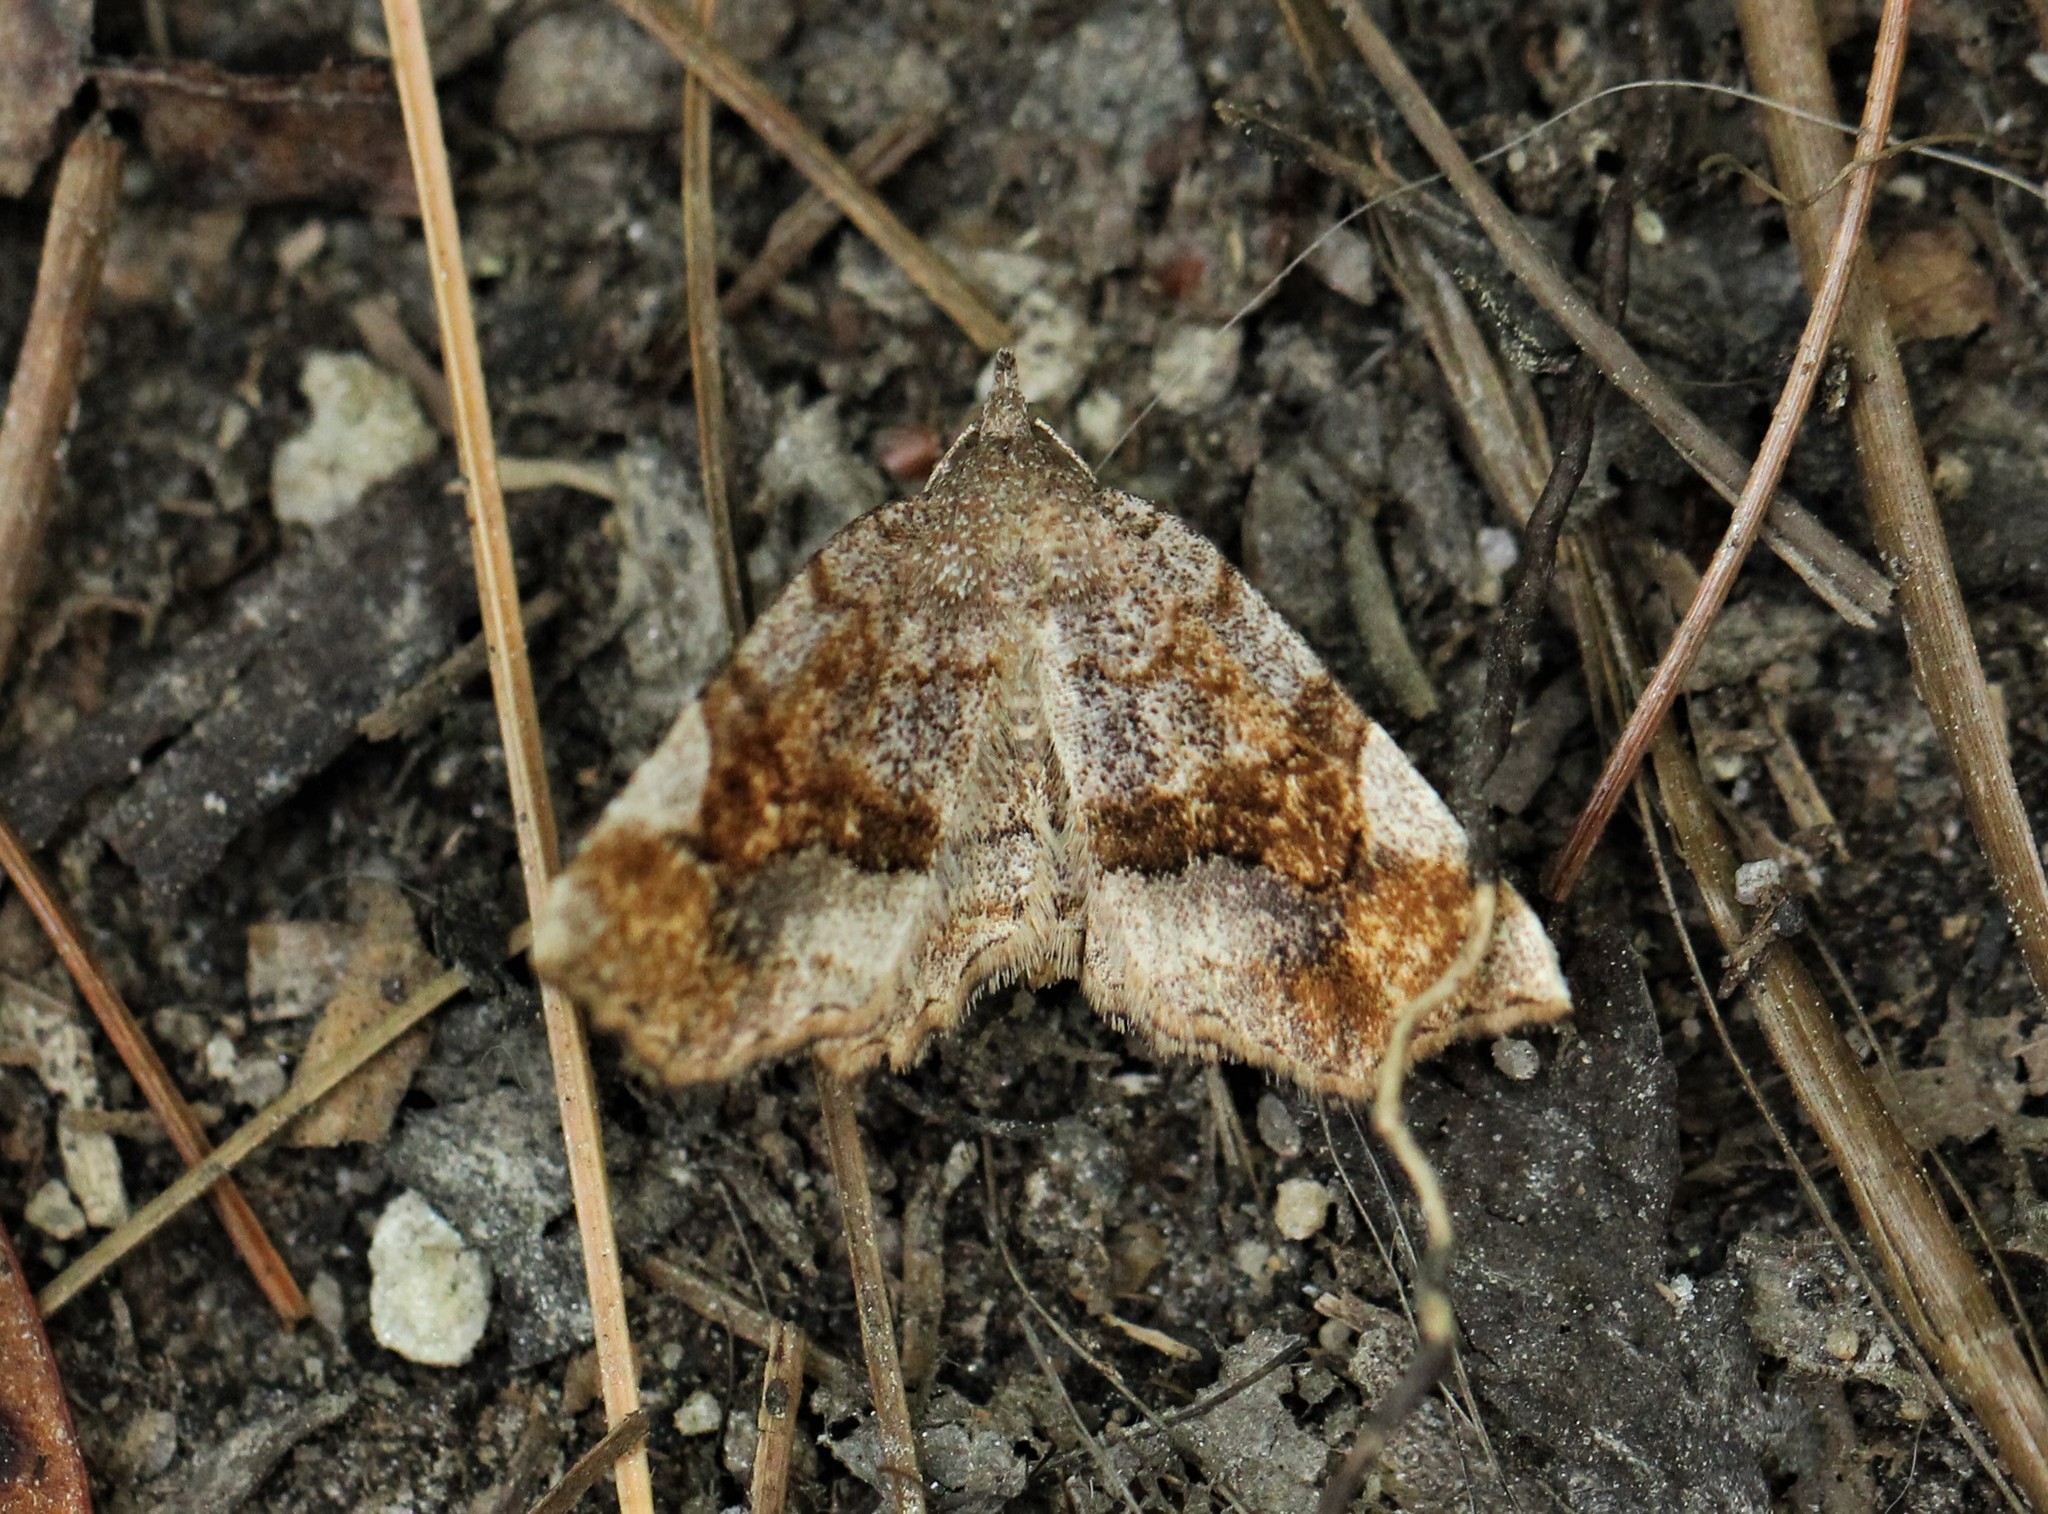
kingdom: Animalia
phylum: Arthropoda
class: Insecta
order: Lepidoptera
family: Erebidae
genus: Pangrapta
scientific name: Pangrapta decoralis
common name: Decorated owlet
